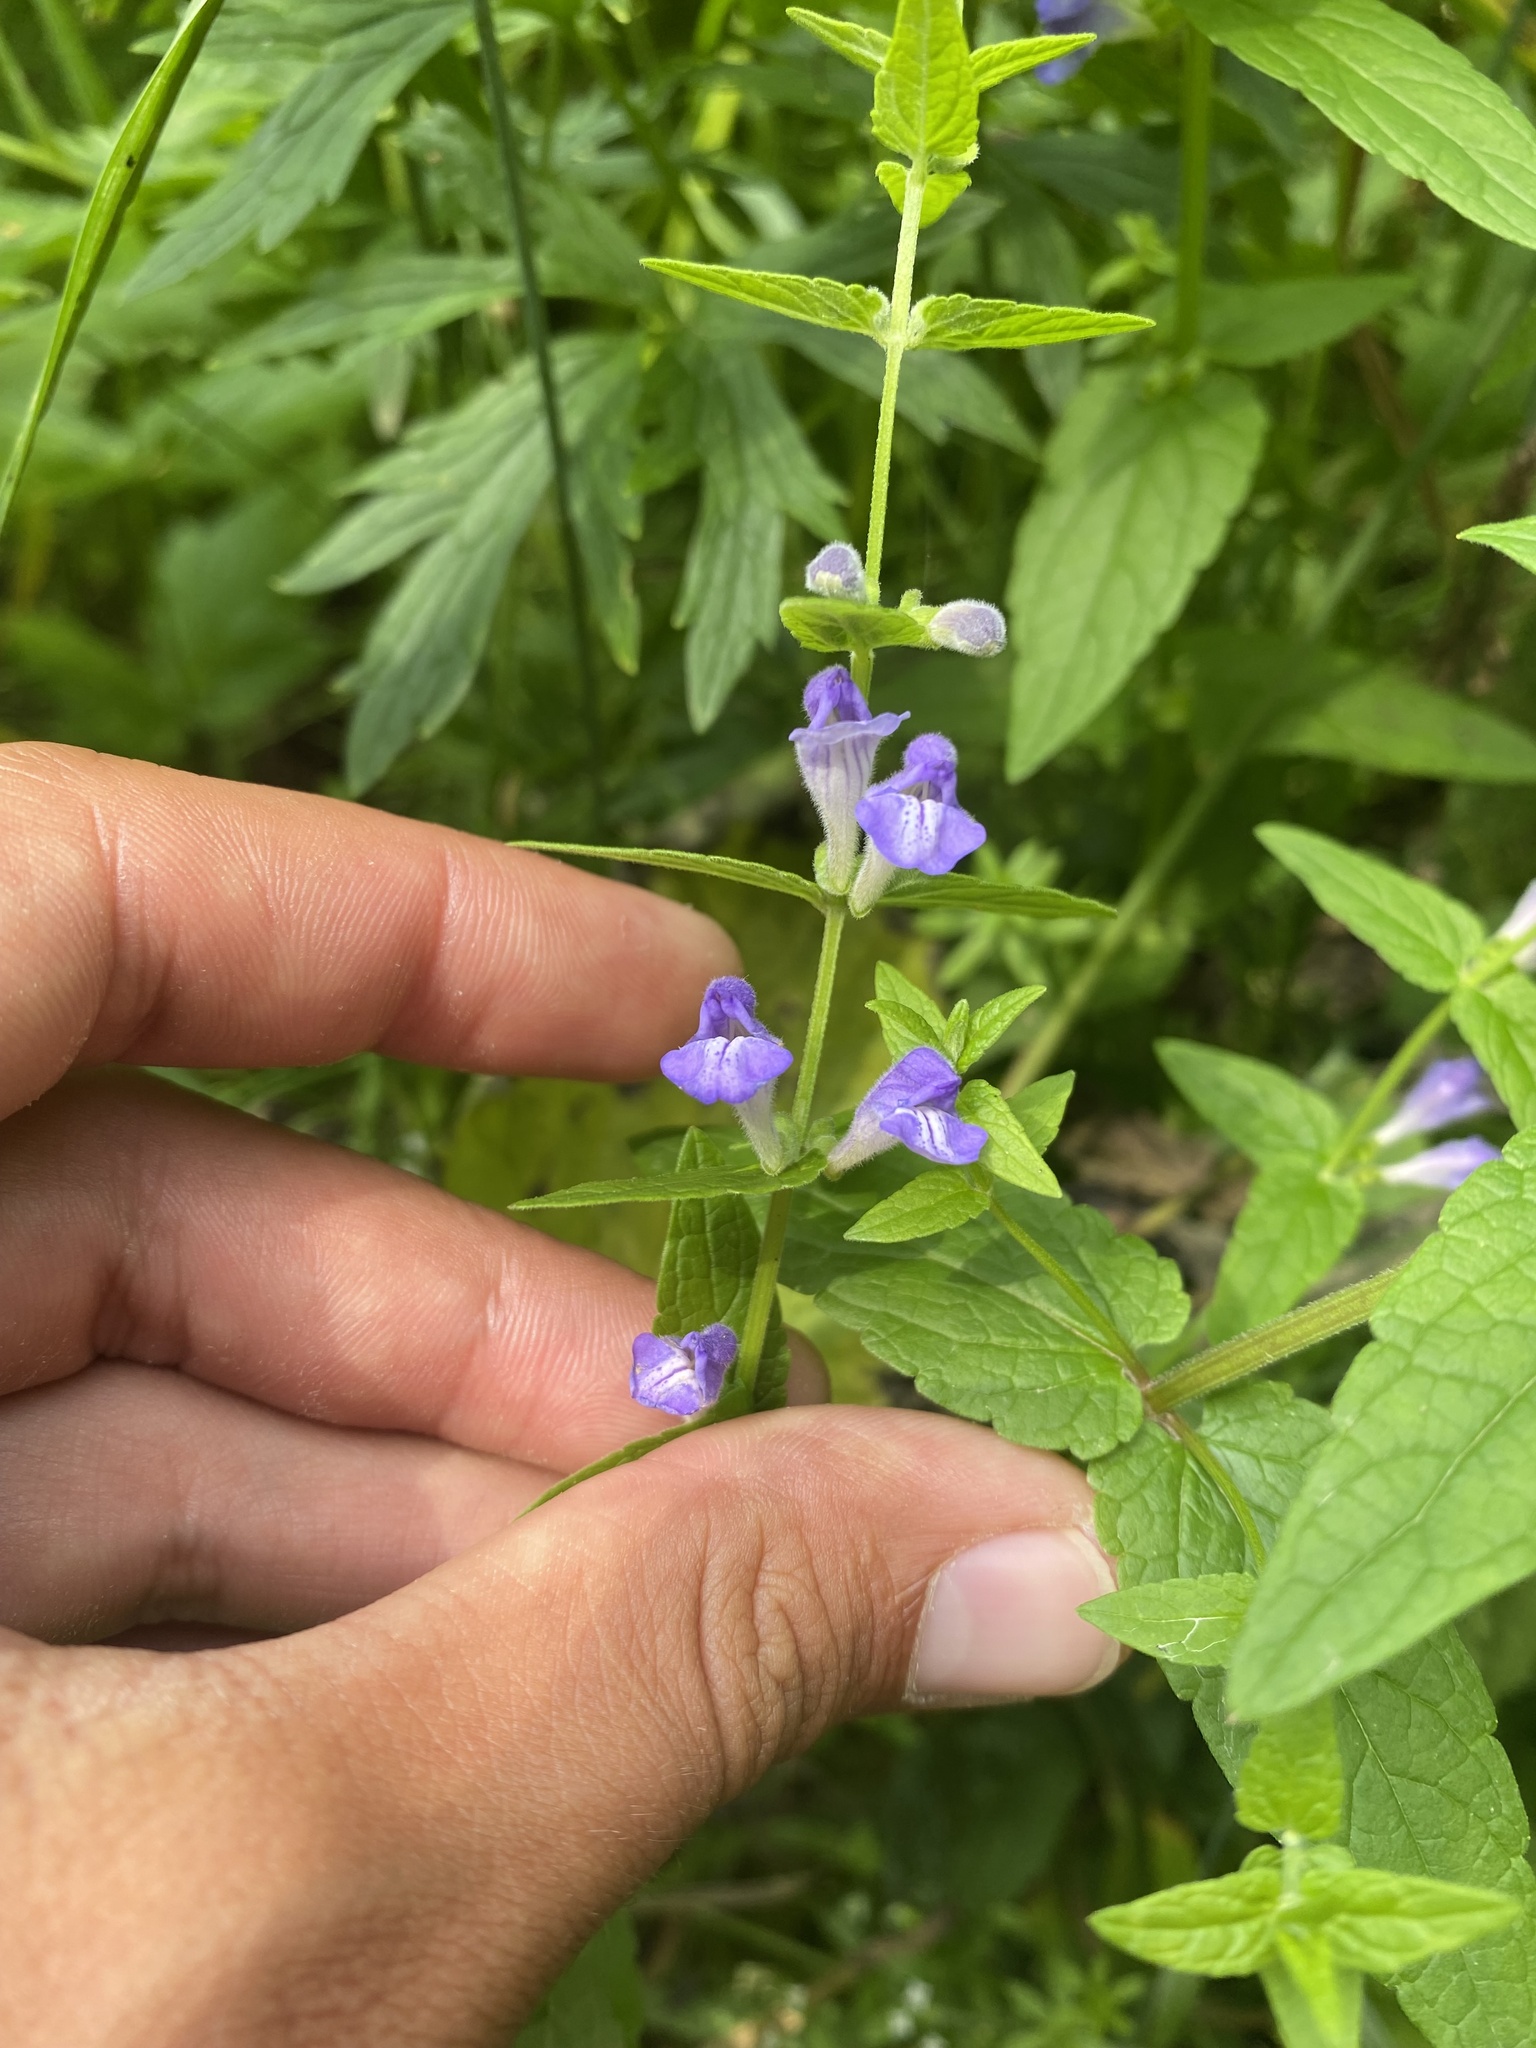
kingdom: Plantae
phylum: Tracheophyta
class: Magnoliopsida
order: Lamiales
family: Lamiaceae
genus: Scutellaria
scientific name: Scutellaria galericulata
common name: Skullcap
